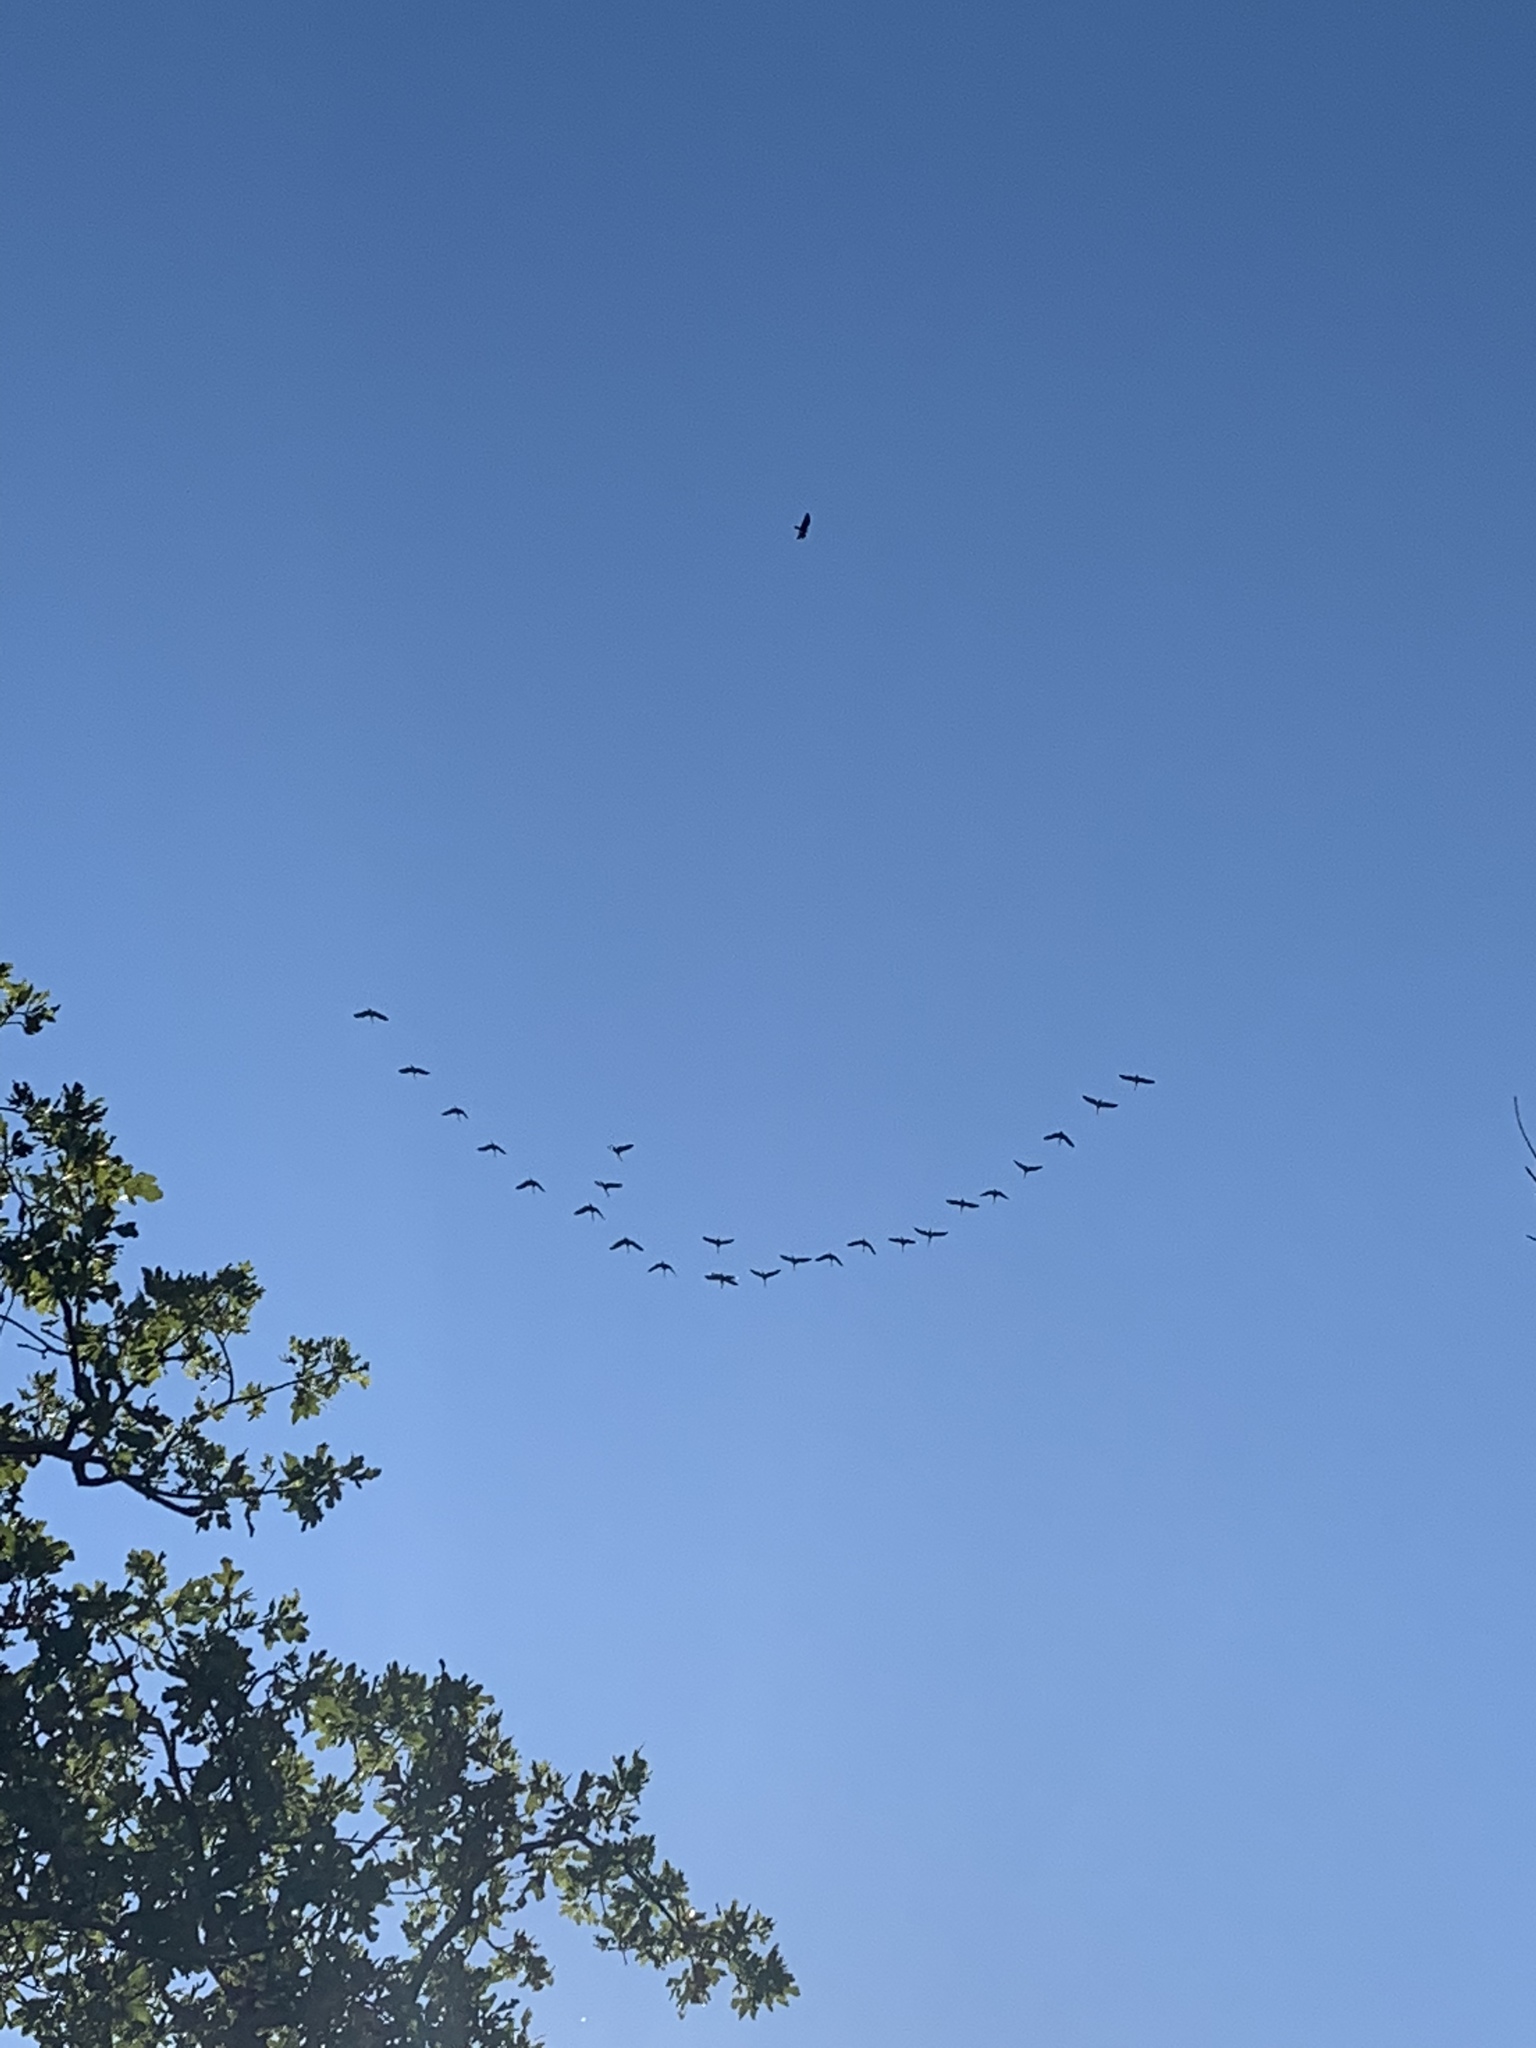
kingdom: Animalia
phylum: Chordata
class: Aves
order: Gruiformes
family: Gruidae
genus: Grus
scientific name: Grus canadensis
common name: Sandhill crane
